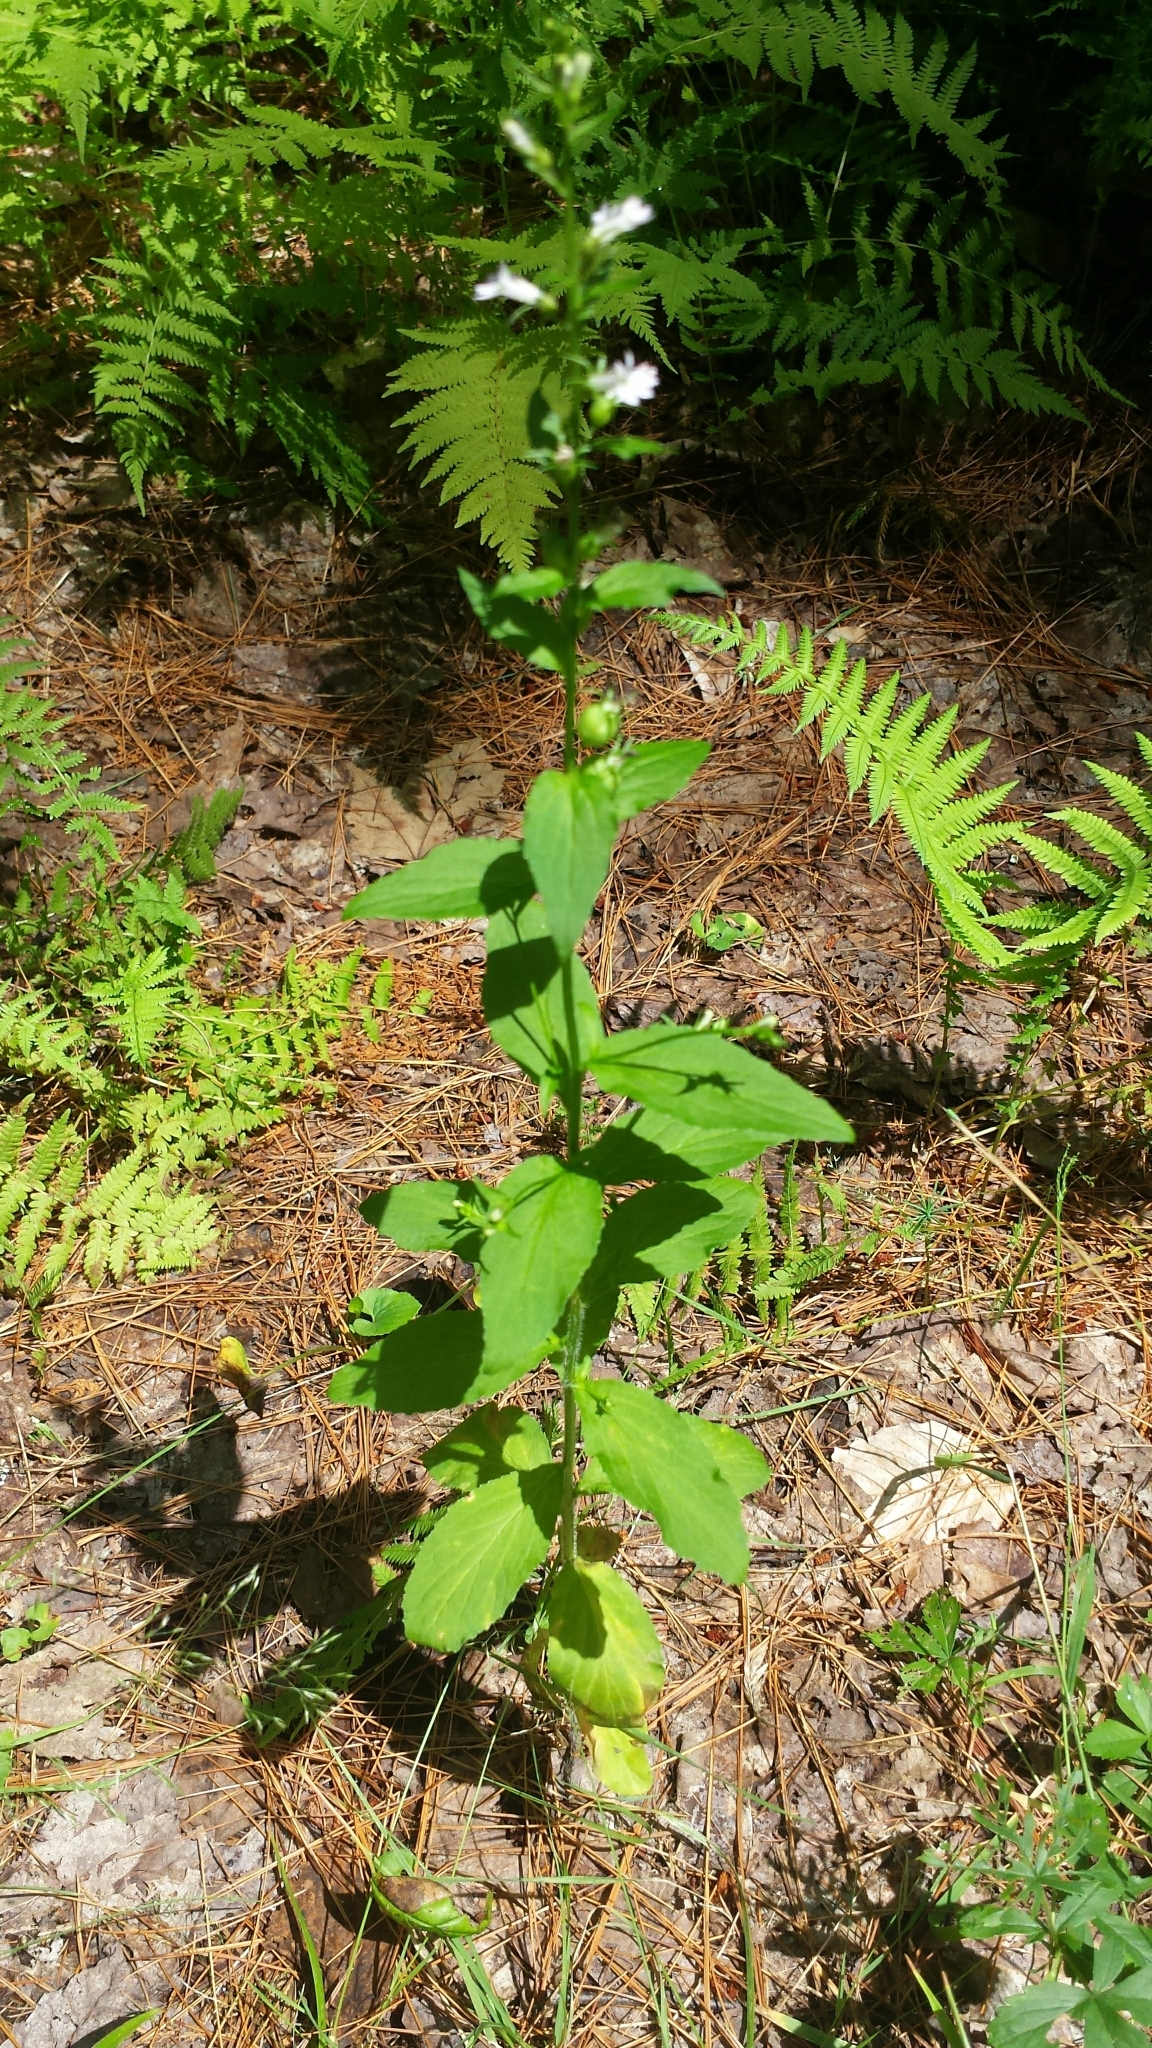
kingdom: Plantae
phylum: Tracheophyta
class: Magnoliopsida
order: Asterales
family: Campanulaceae
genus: Lobelia
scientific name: Lobelia inflata
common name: Indian tobacco
